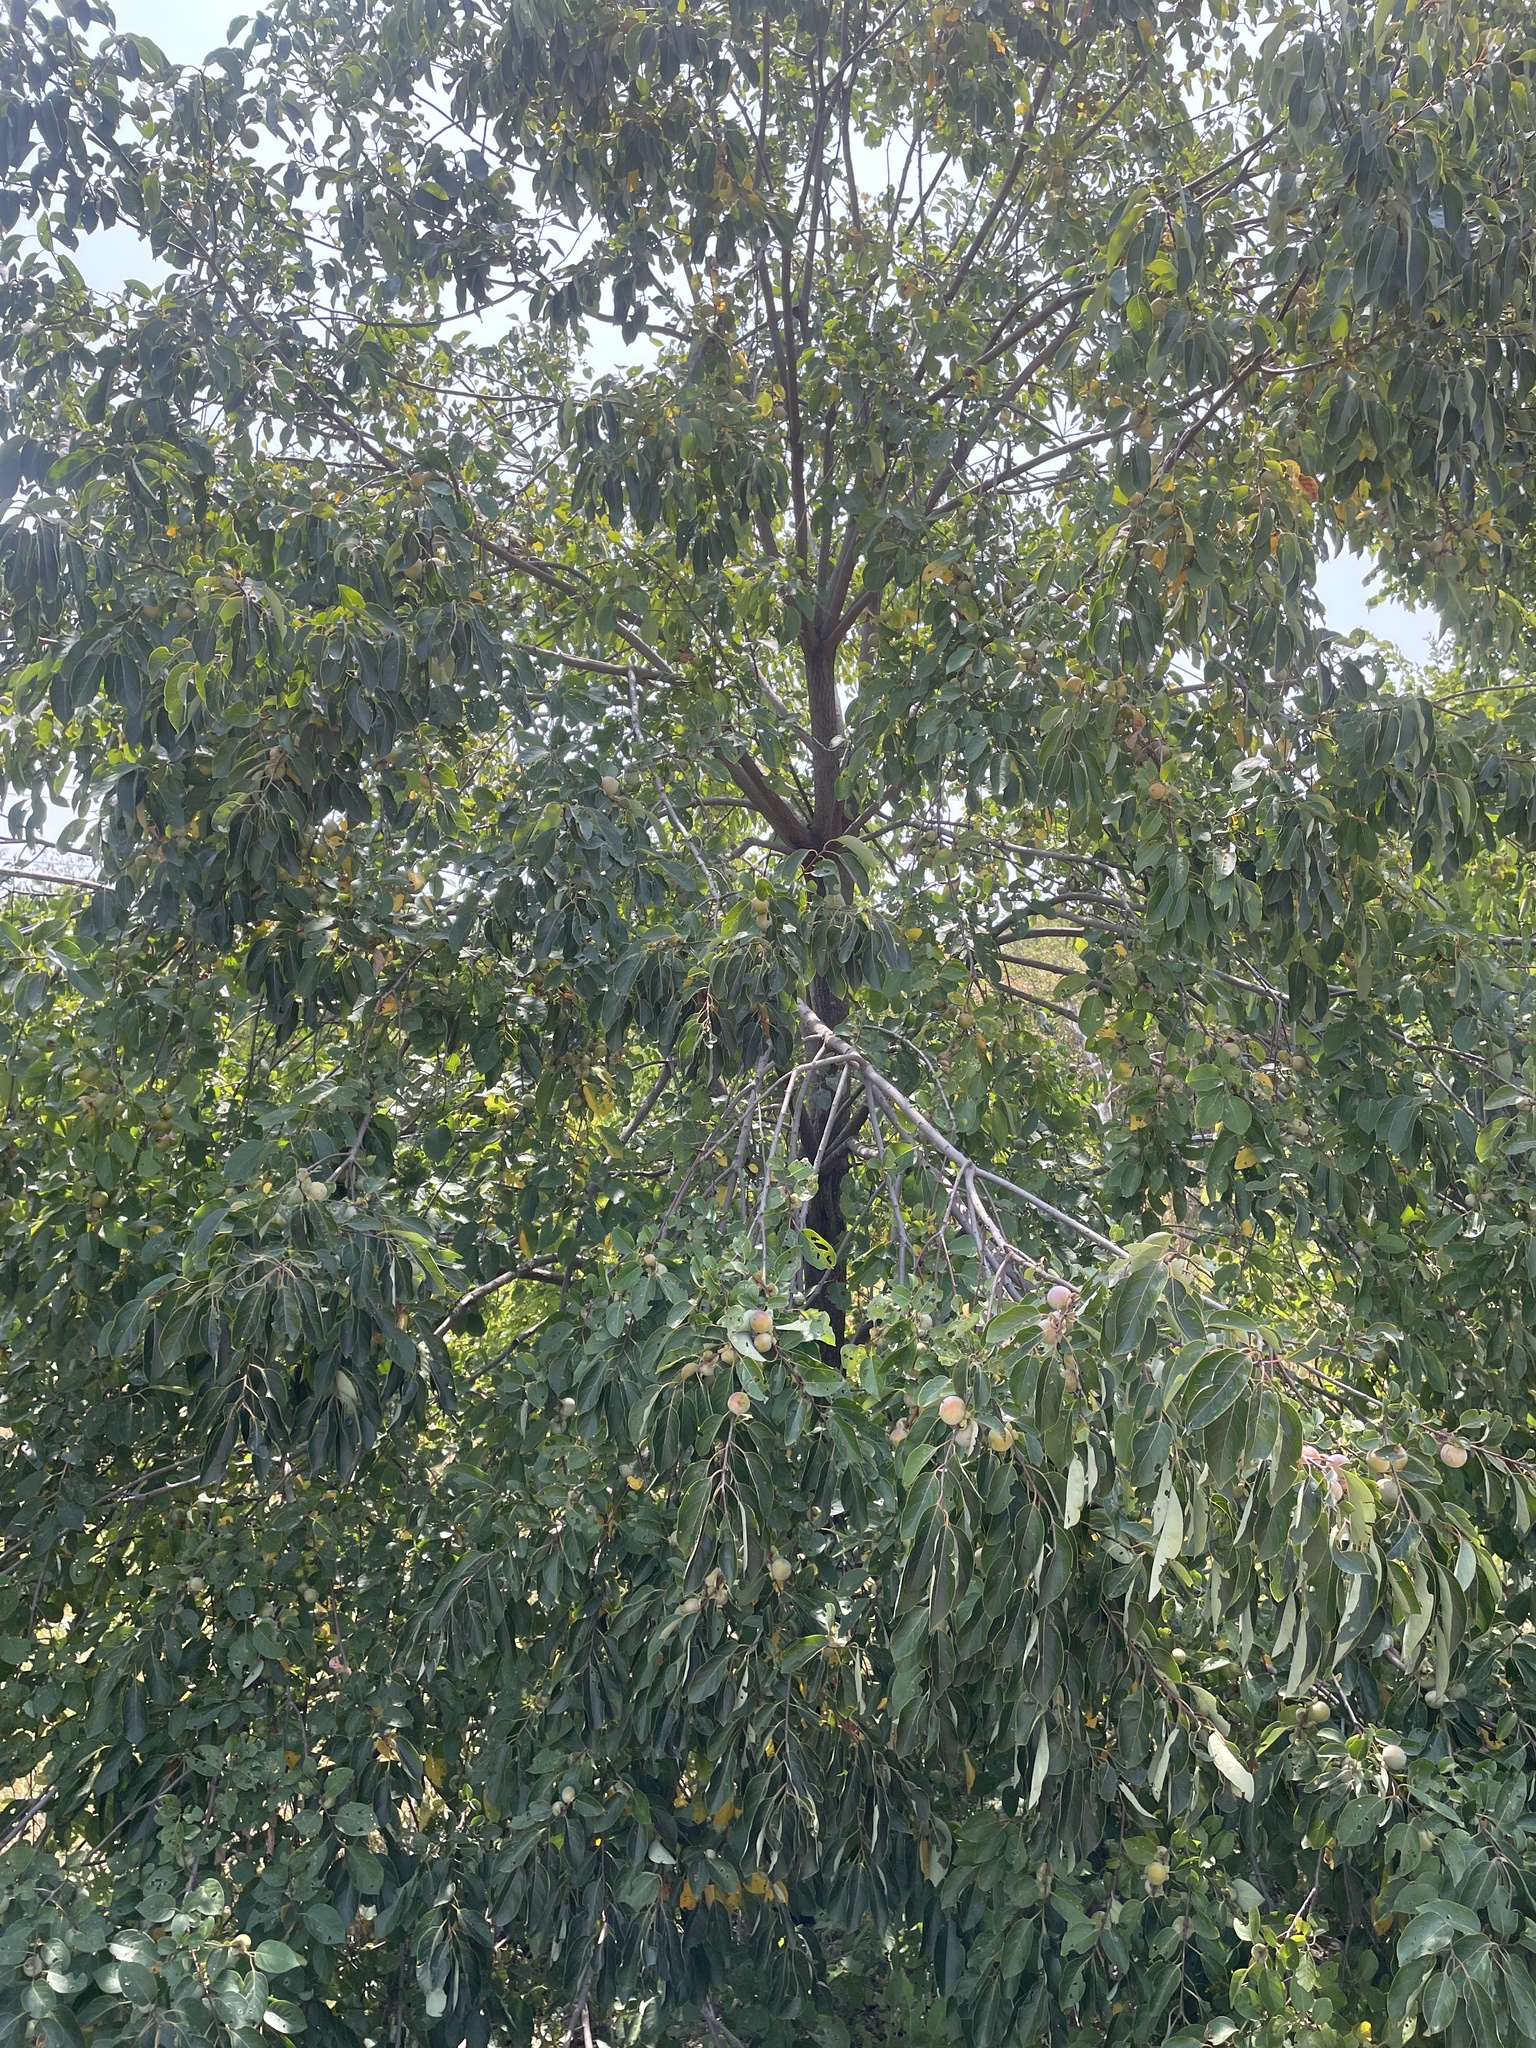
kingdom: Plantae
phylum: Tracheophyta
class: Magnoliopsida
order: Ericales
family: Ebenaceae
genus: Diospyros
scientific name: Diospyros virginiana
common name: Persimmon
